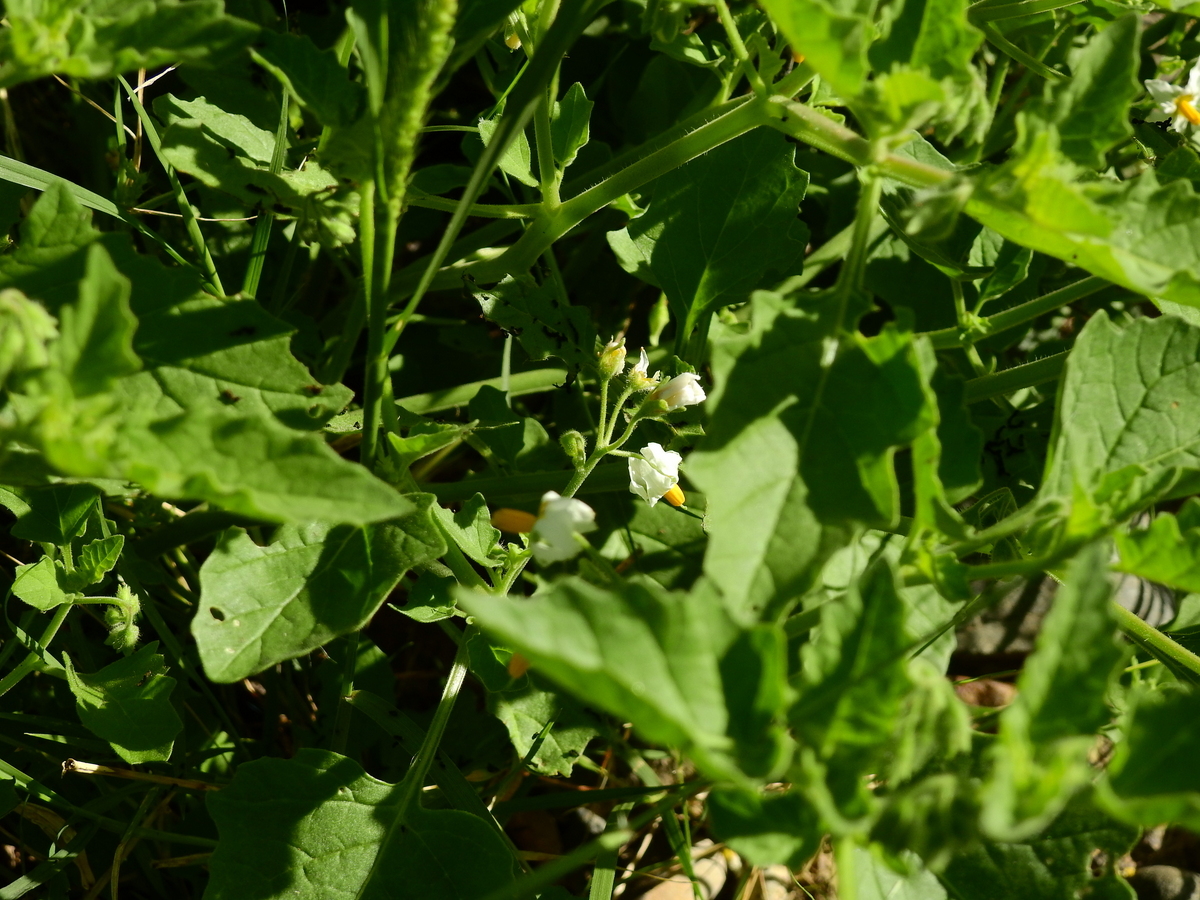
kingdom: Plantae
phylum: Tracheophyta
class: Magnoliopsida
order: Solanales
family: Solanaceae
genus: Solanum
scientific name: Solanum tweedianum
